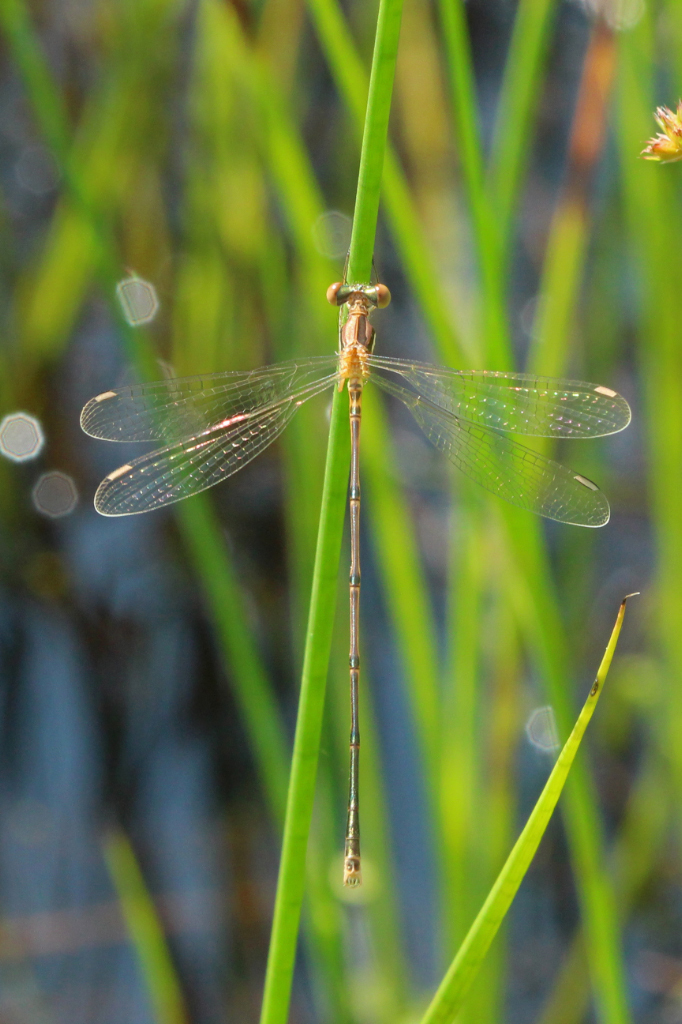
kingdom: Animalia
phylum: Arthropoda
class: Insecta
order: Odonata
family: Lestidae
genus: Lestes
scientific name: Lestes rectangularis
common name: Slender spreadwing
